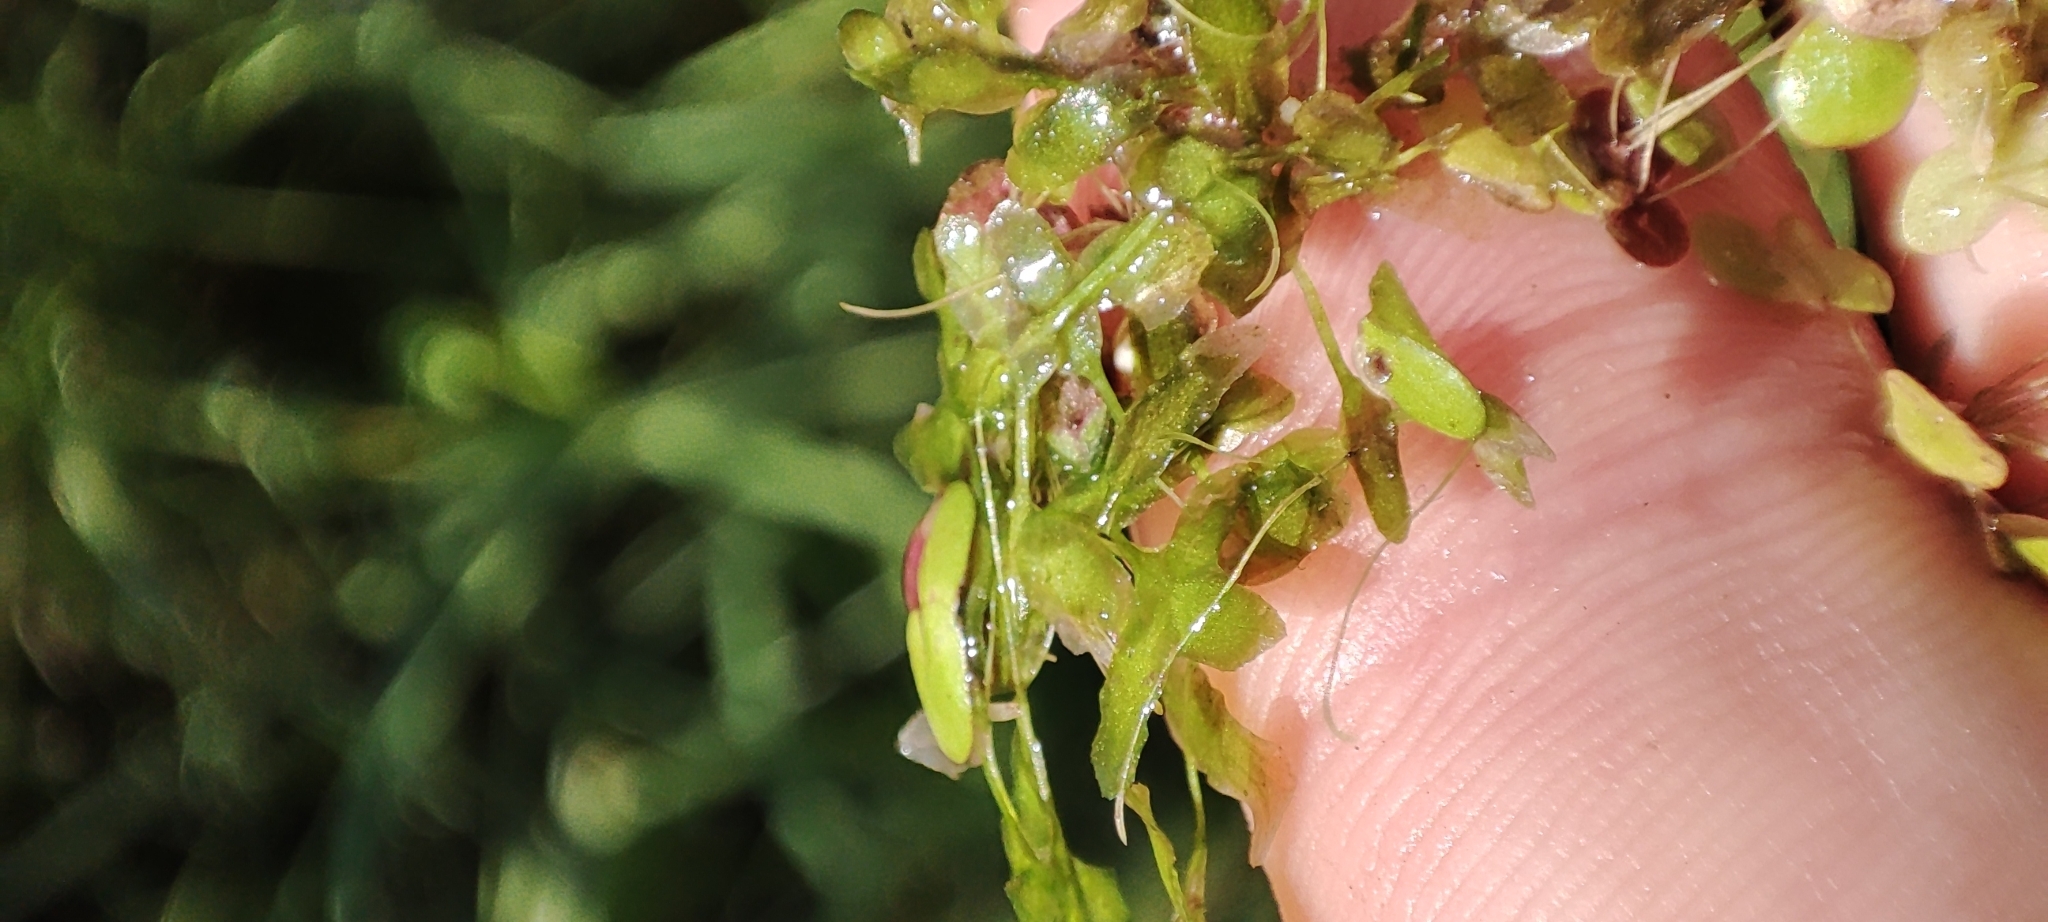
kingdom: Plantae
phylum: Tracheophyta
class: Liliopsida
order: Alismatales
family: Araceae
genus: Lemna
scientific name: Lemna trisulca
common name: Ivy-leaved duckweed
